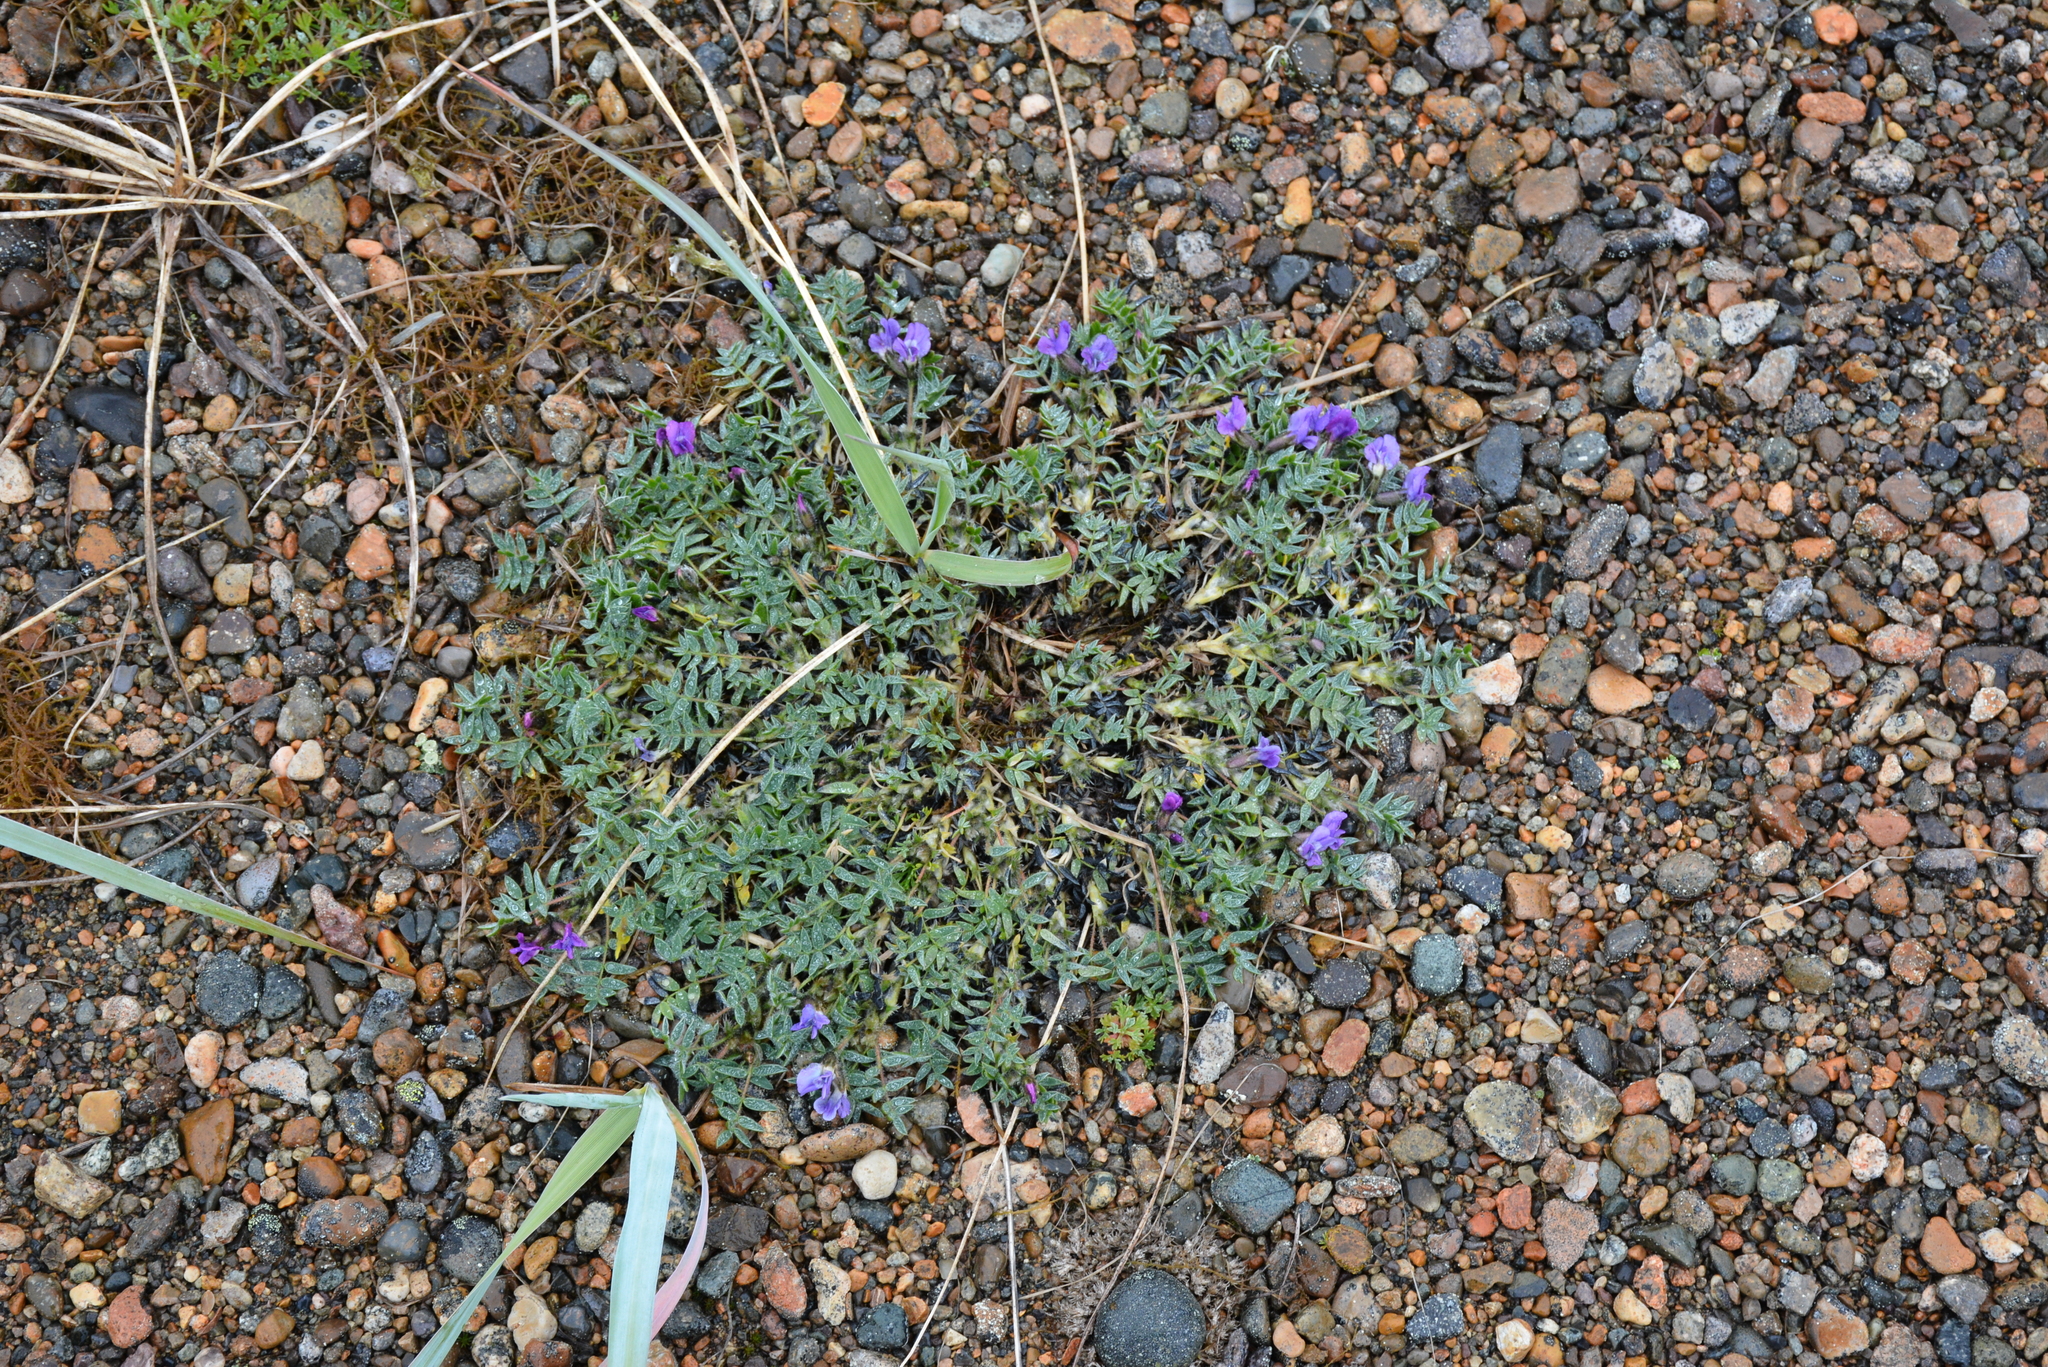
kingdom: Plantae
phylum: Tracheophyta
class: Magnoliopsida
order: Fabales
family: Fabaceae
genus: Oxytropis
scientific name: Oxytropis czukotica
